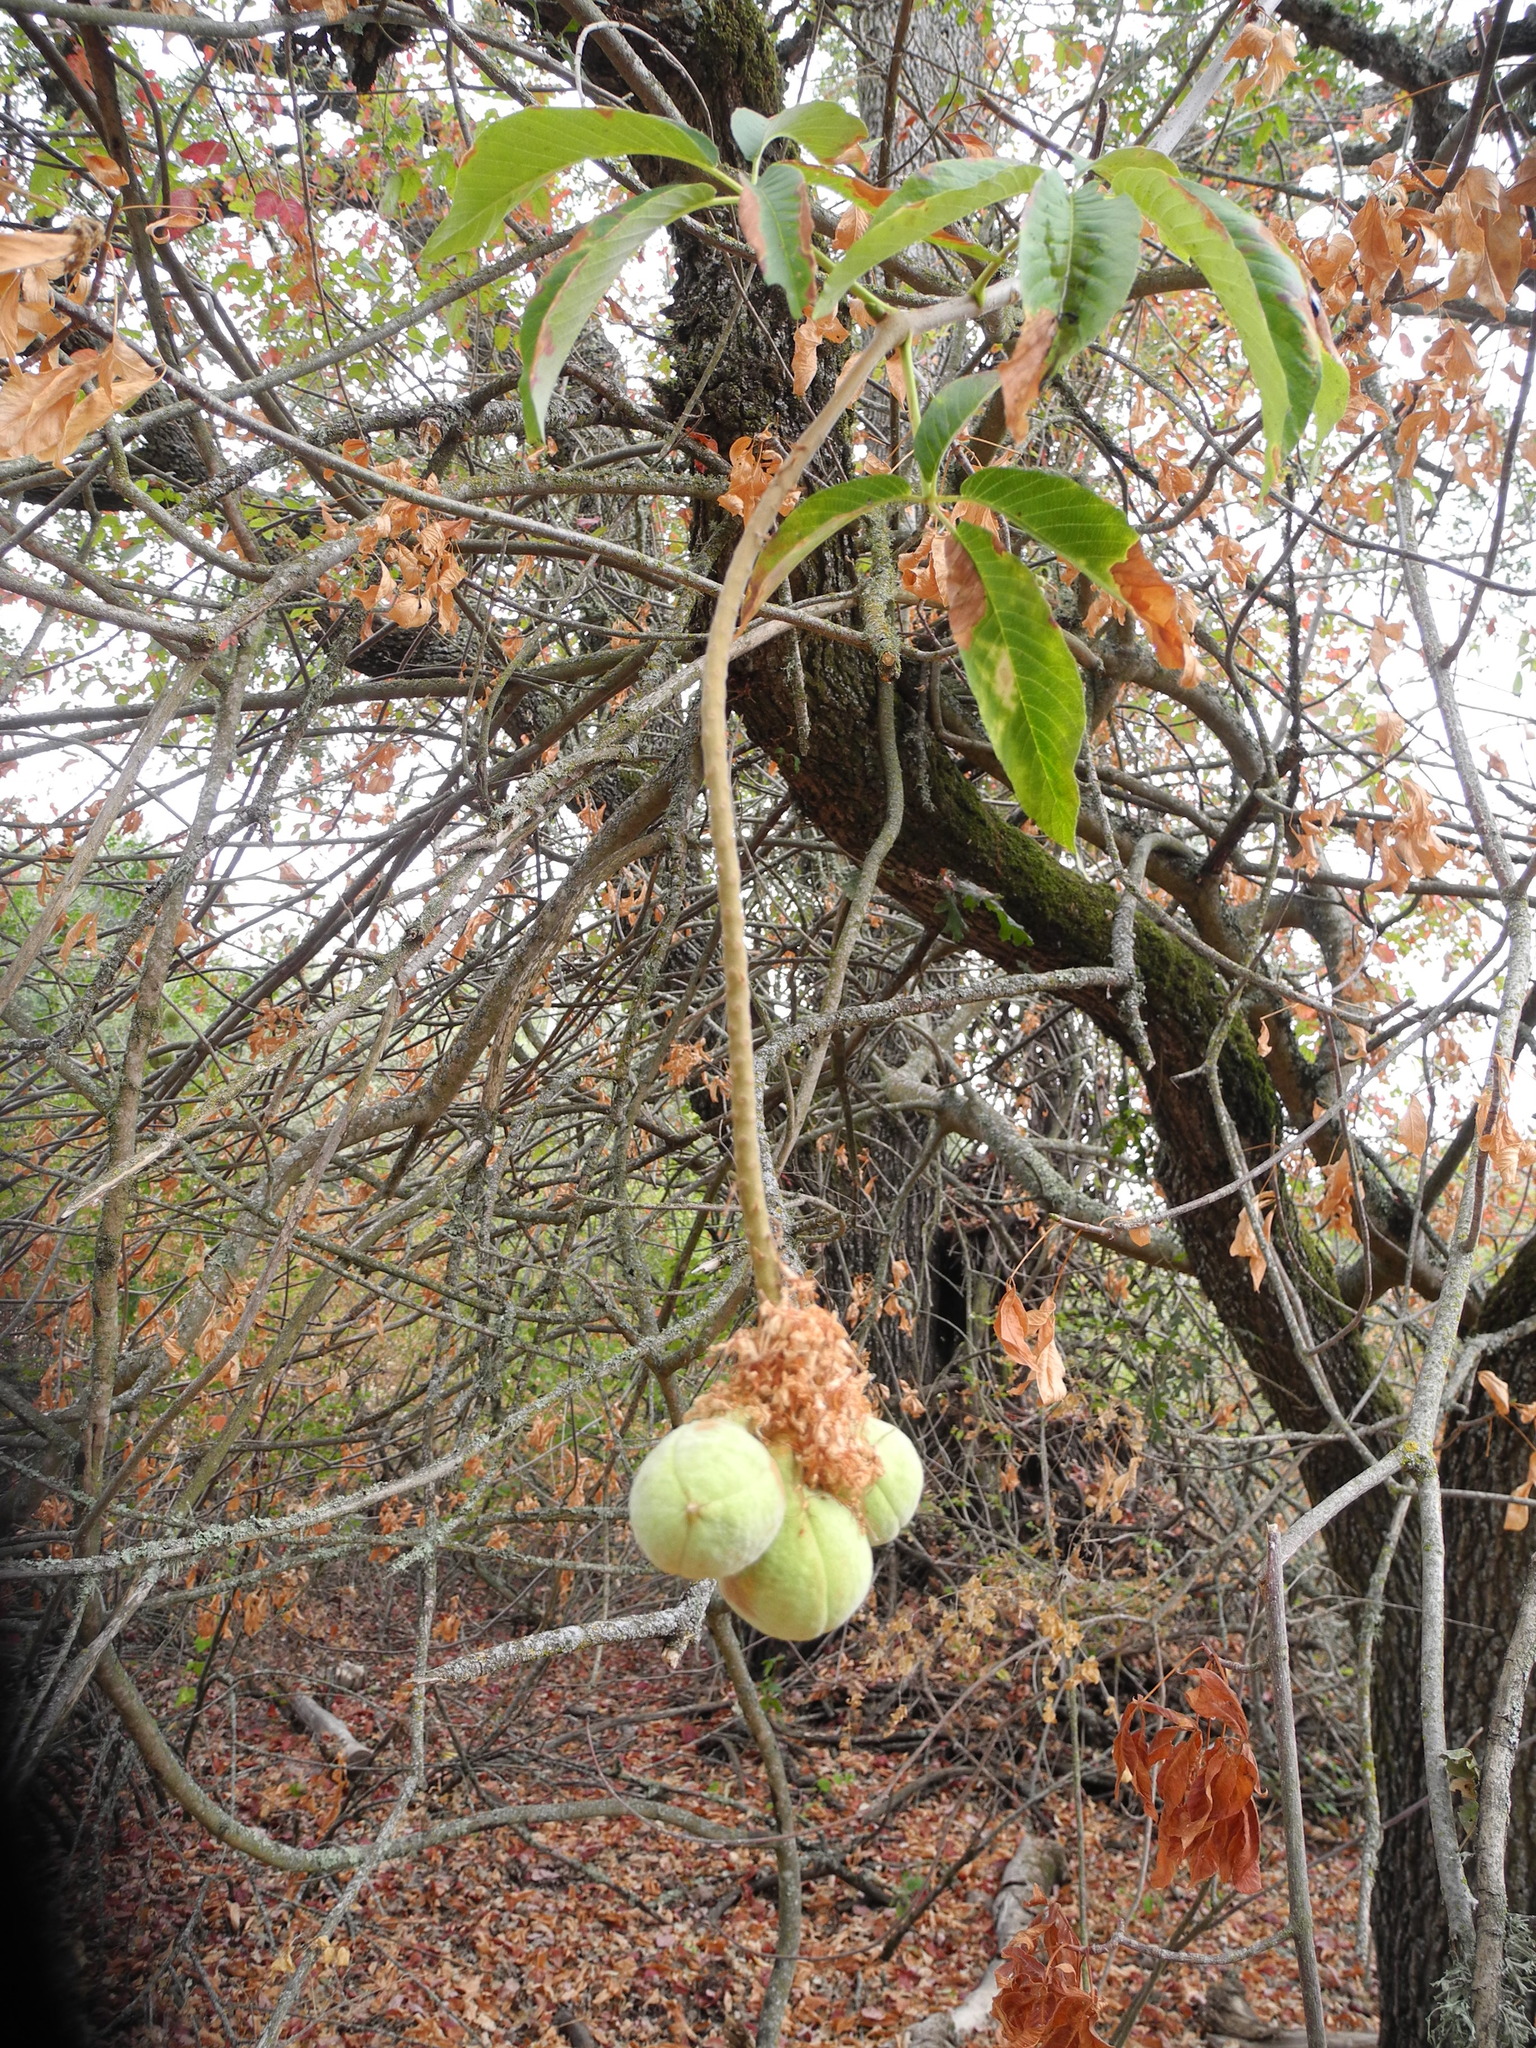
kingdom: Plantae
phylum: Tracheophyta
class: Magnoliopsida
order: Sapindales
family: Sapindaceae
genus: Aesculus
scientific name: Aesculus californica
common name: California buckeye
